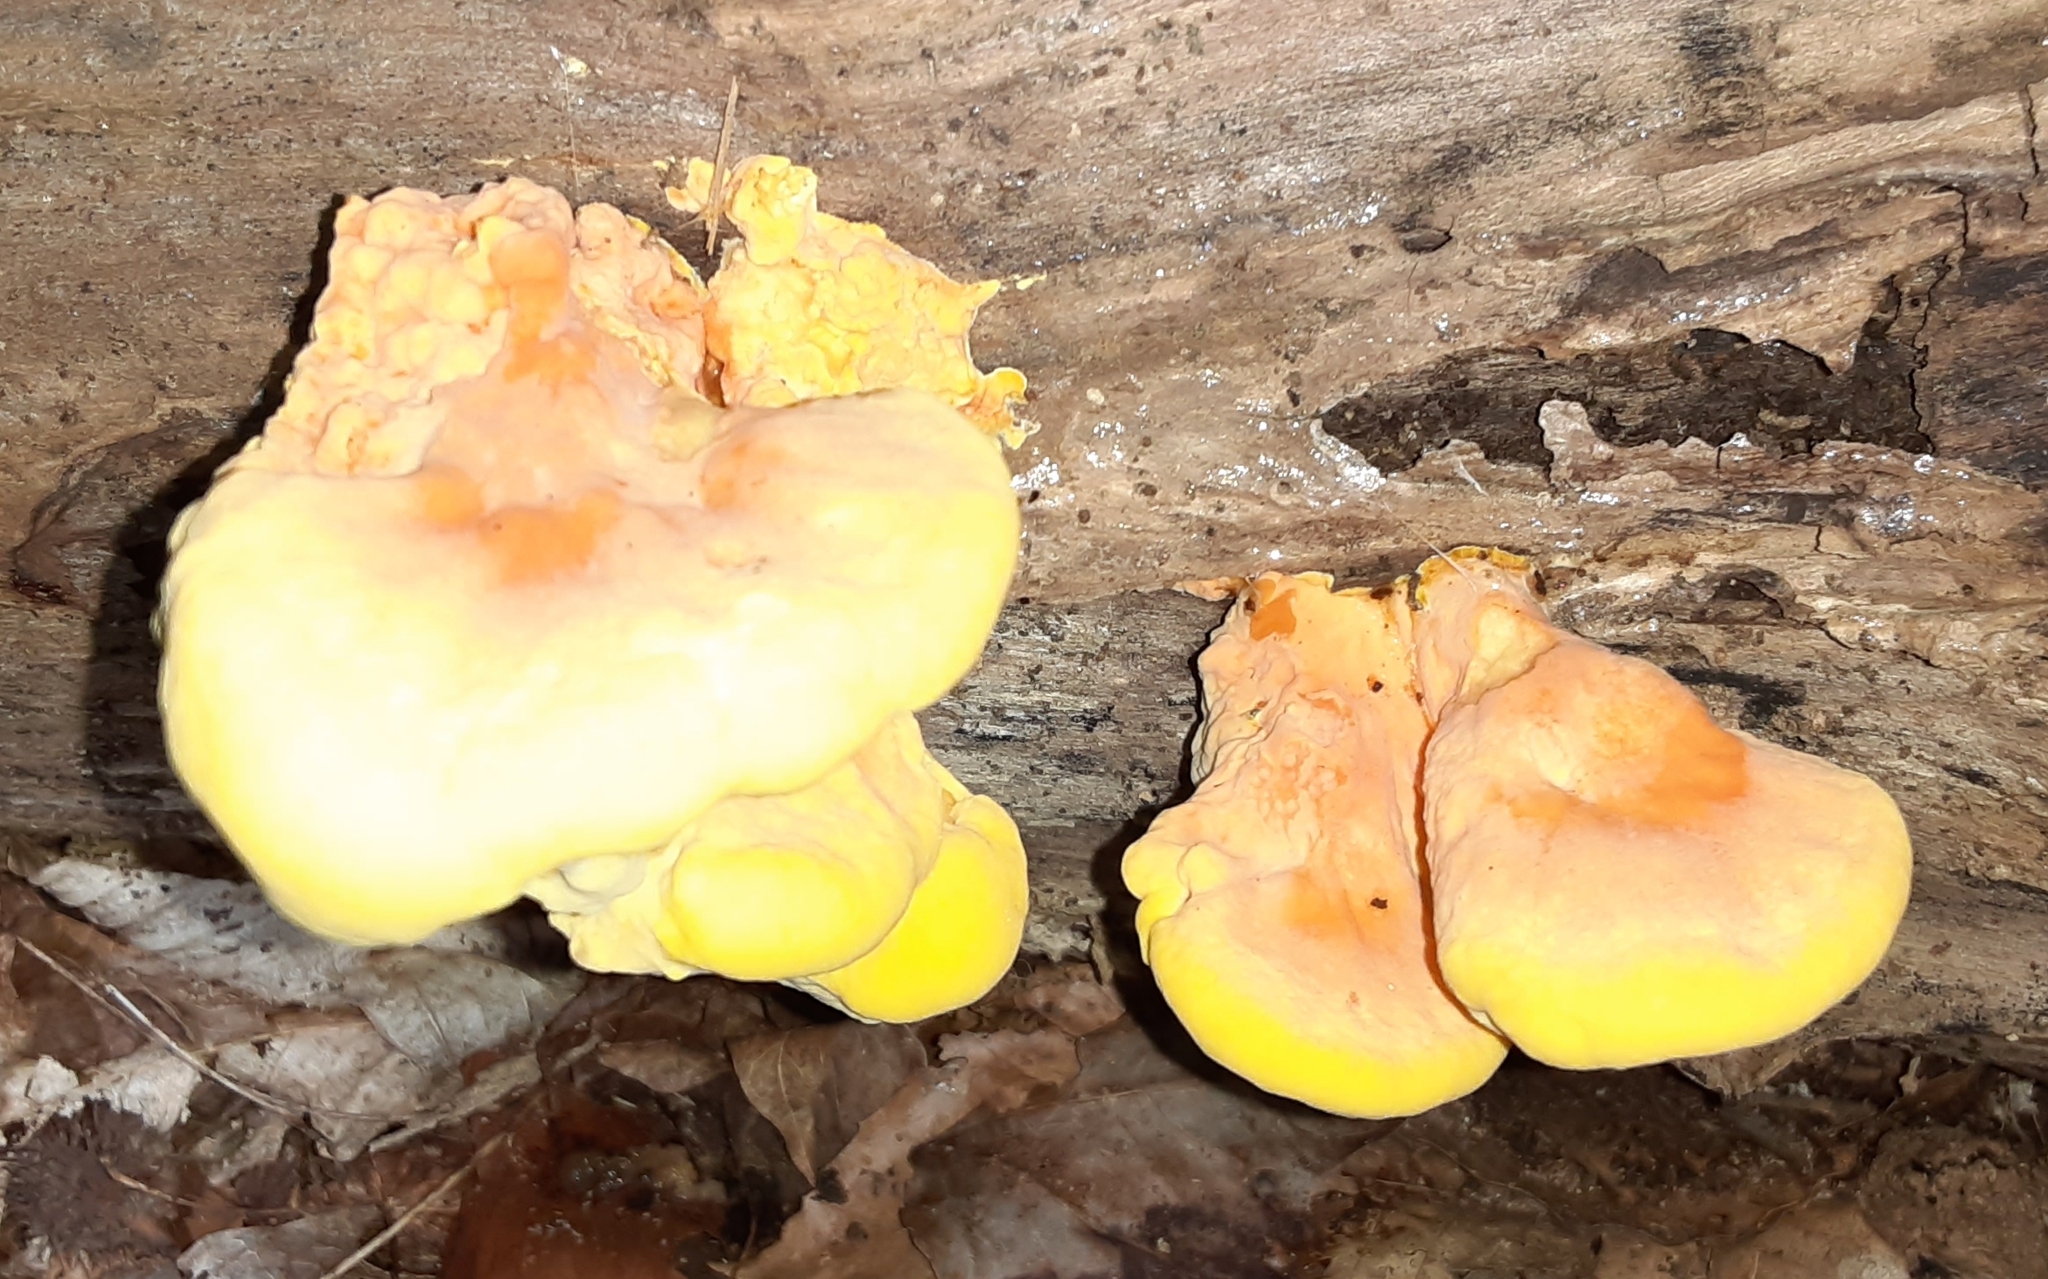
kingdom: Fungi
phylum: Basidiomycota
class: Agaricomycetes
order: Polyporales
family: Laetiporaceae
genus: Laetiporus
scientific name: Laetiporus sulphureus
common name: Chicken of the woods
